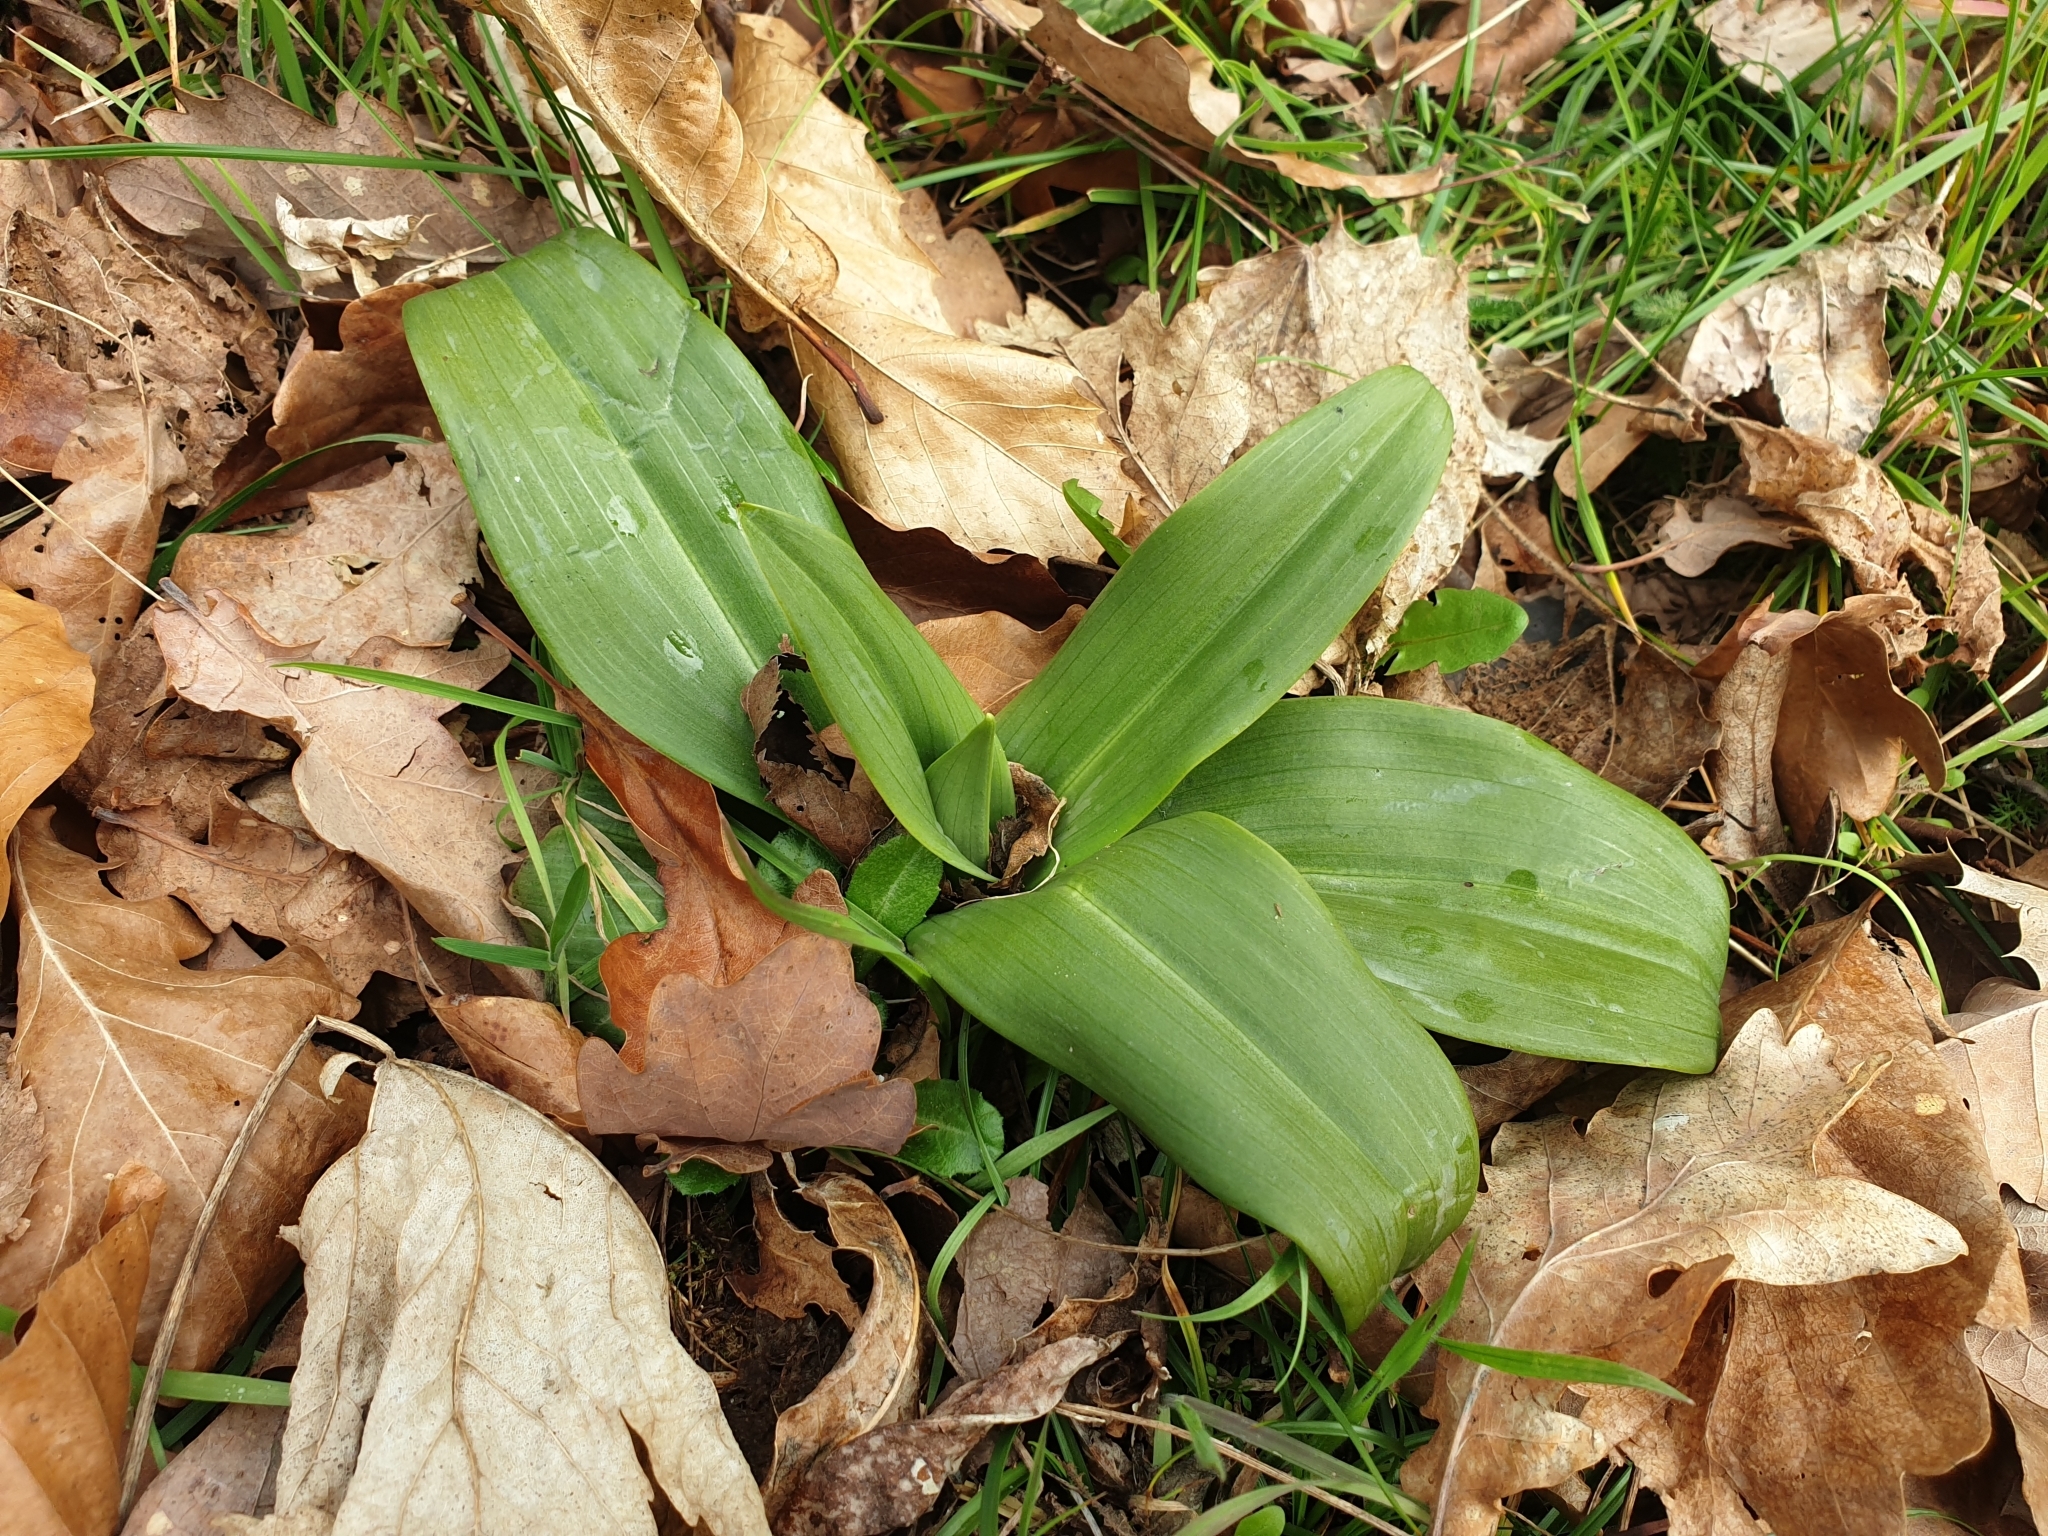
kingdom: Plantae
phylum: Tracheophyta
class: Liliopsida
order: Asparagales
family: Orchidaceae
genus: Himantoglossum
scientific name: Himantoglossum hircinum
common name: Lizard orchid
